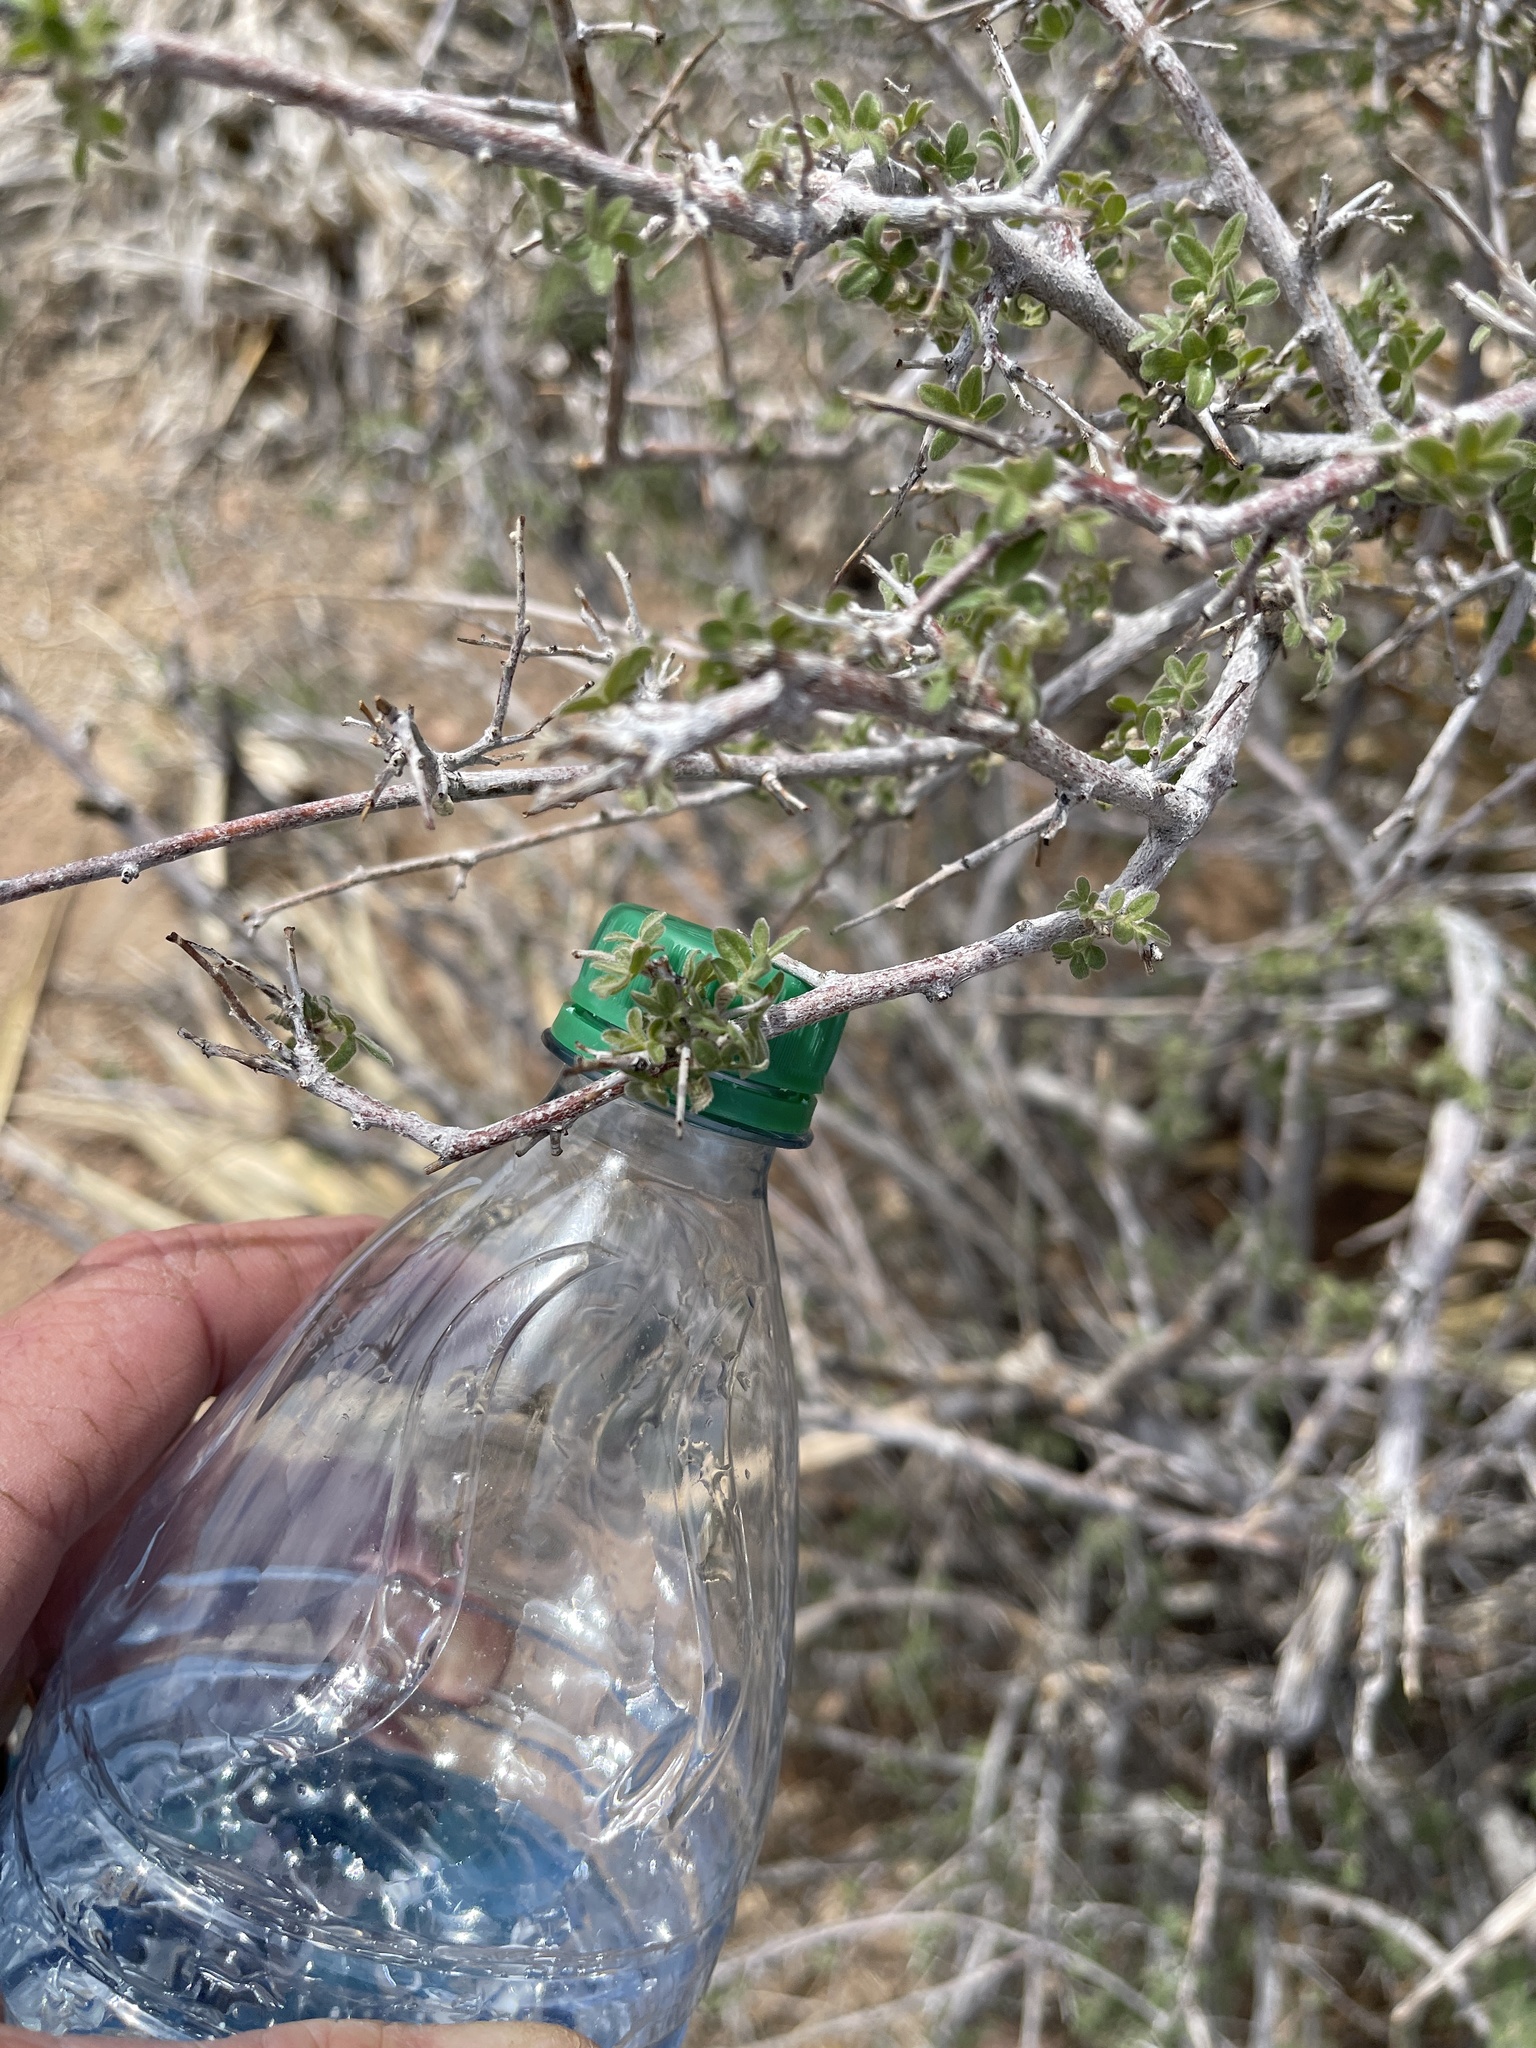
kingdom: Plantae
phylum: Tracheophyta
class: Magnoliopsida
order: Sapindales
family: Anacardiaceae
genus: Rhus
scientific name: Rhus microphylla
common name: Desert sumac
